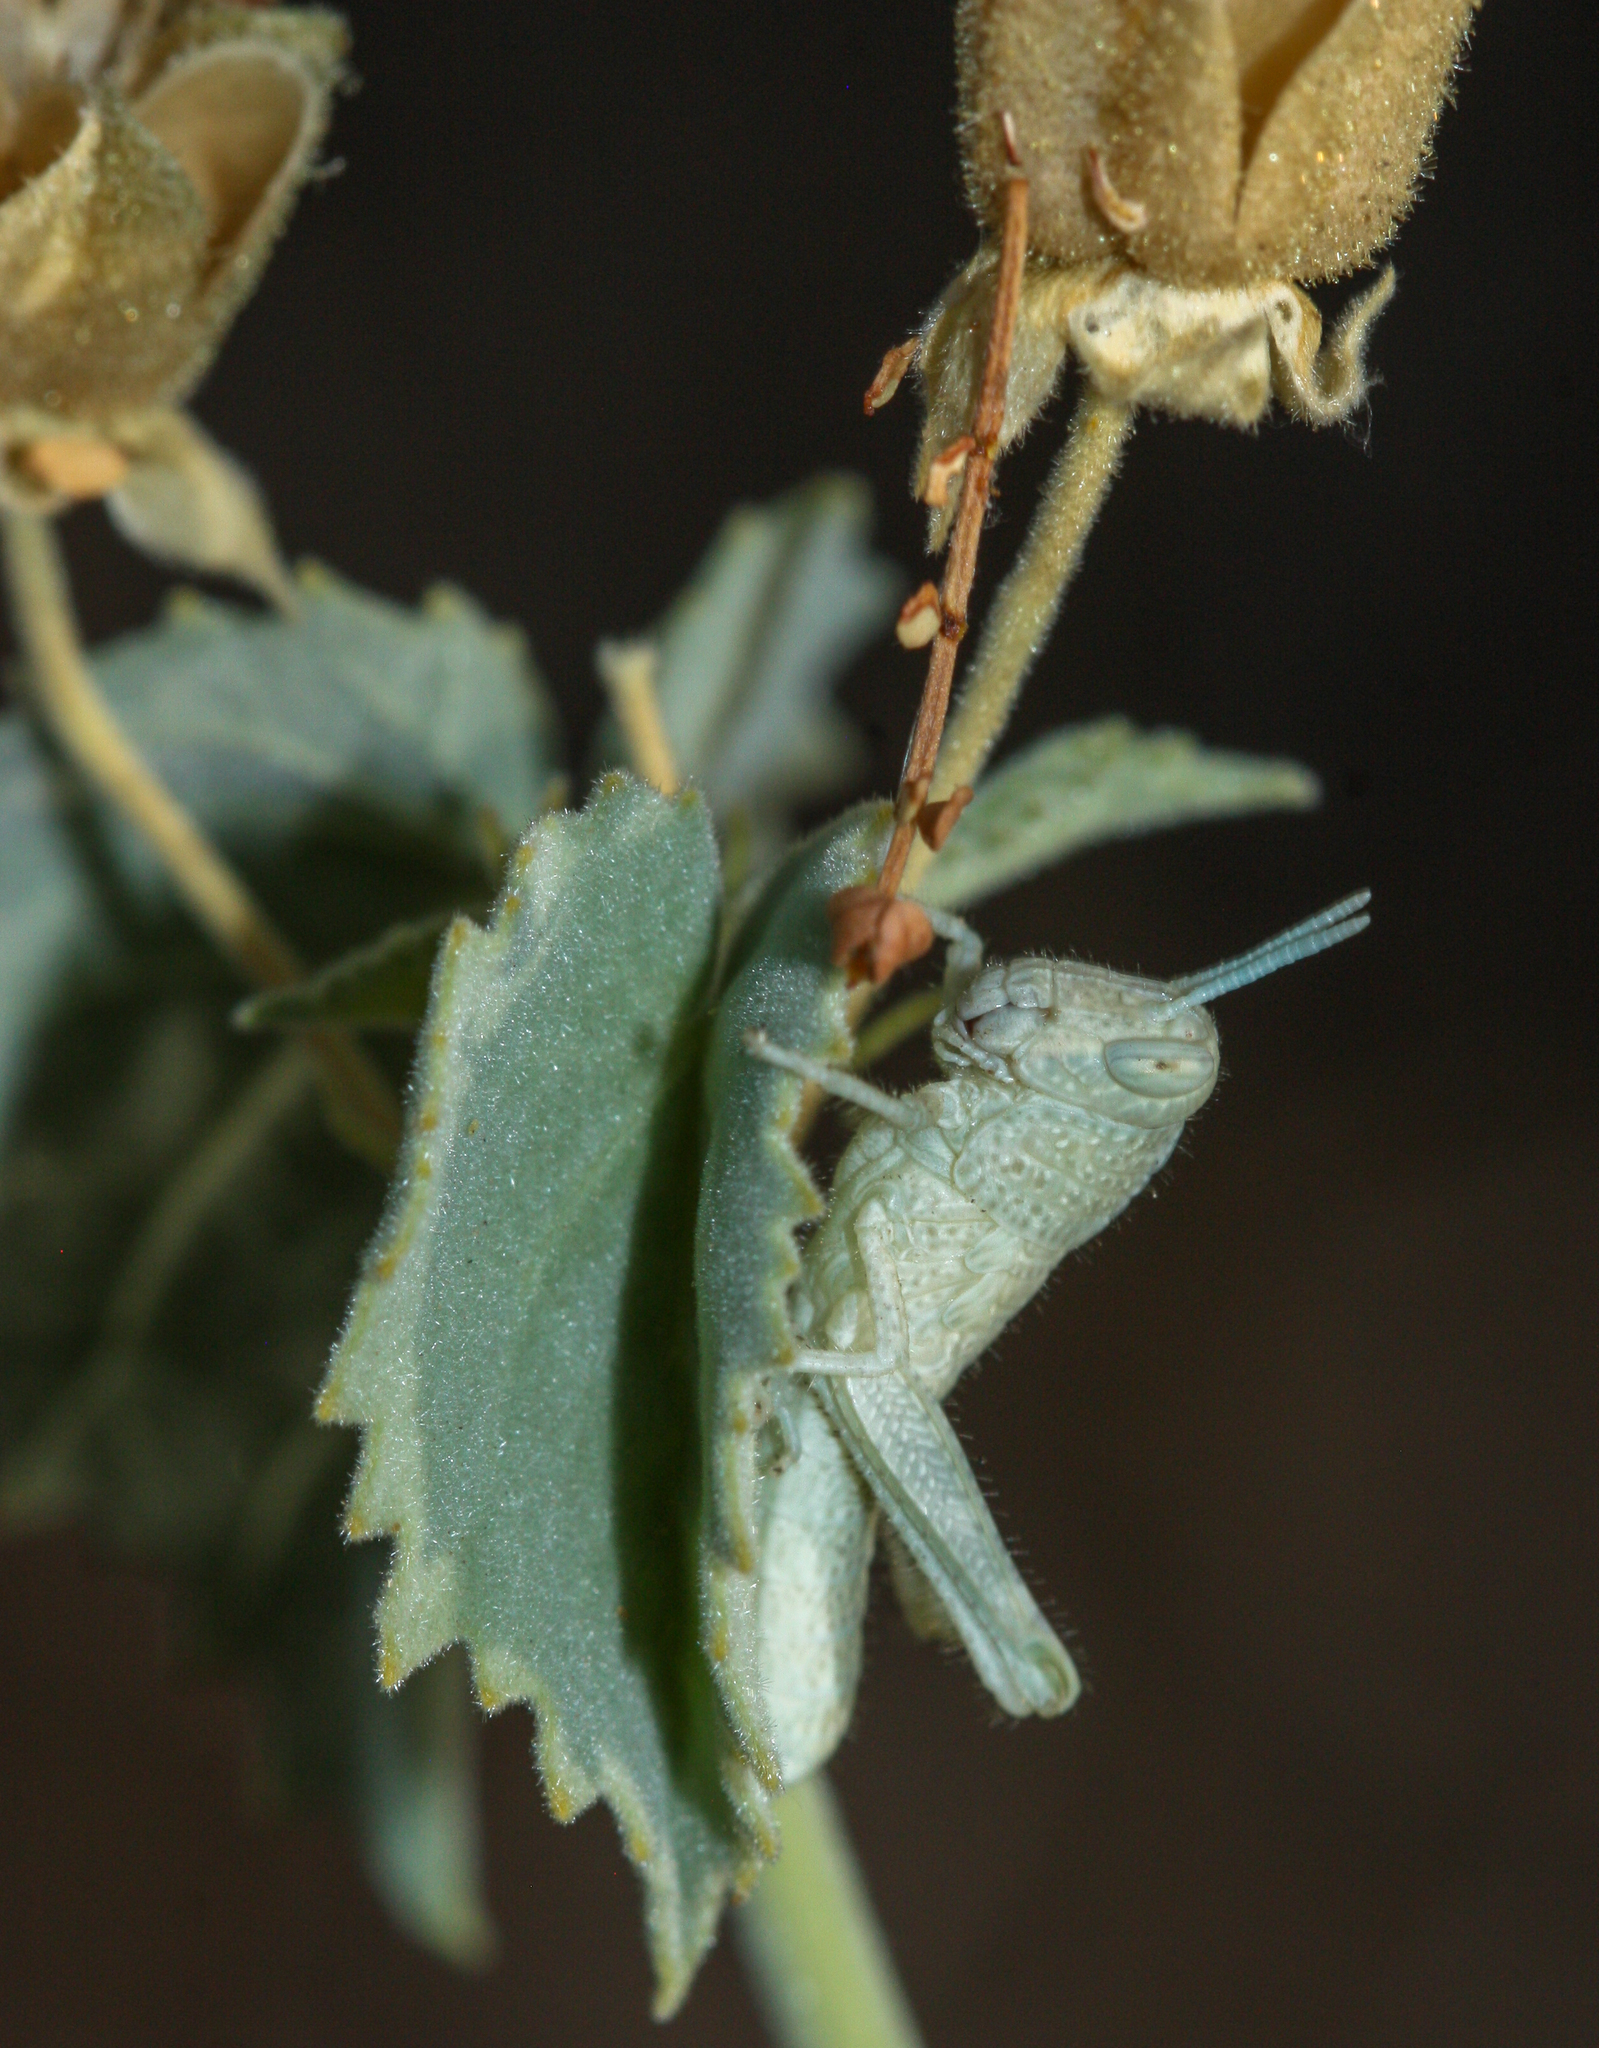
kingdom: Animalia
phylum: Arthropoda
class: Insecta
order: Orthoptera
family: Acrididae
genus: Schistocerca
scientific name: Schistocerca nitens
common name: Vagrant grasshopper
